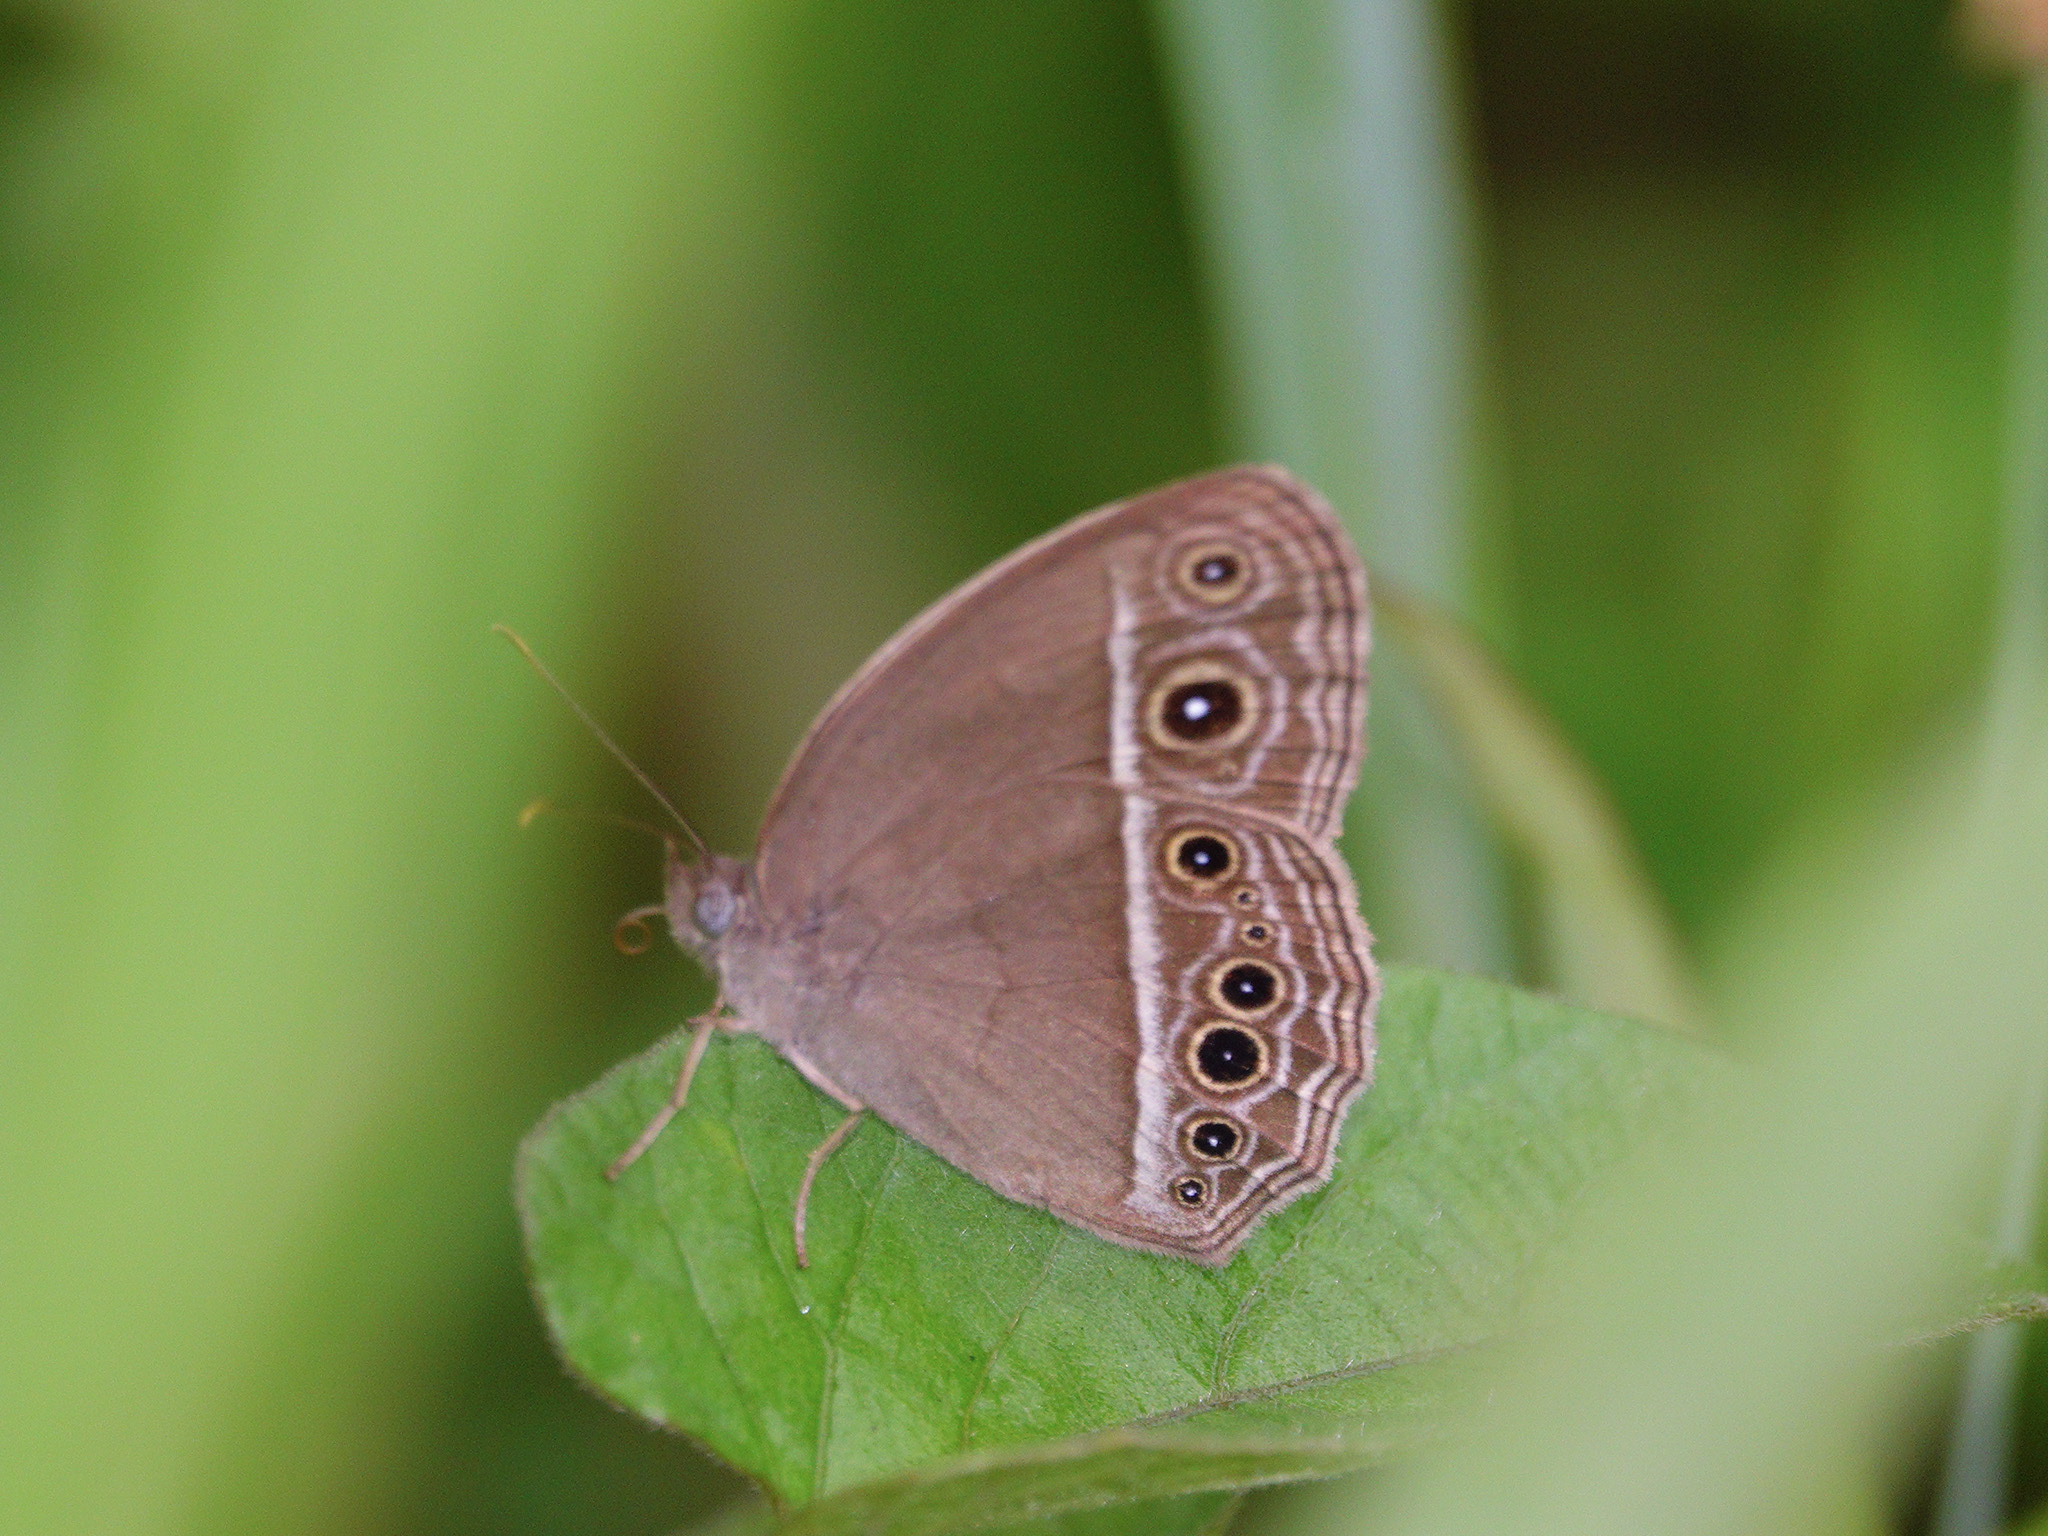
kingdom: Animalia
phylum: Arthropoda
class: Insecta
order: Lepidoptera
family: Nymphalidae
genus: Mycalesis
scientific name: Mycalesis mineus
